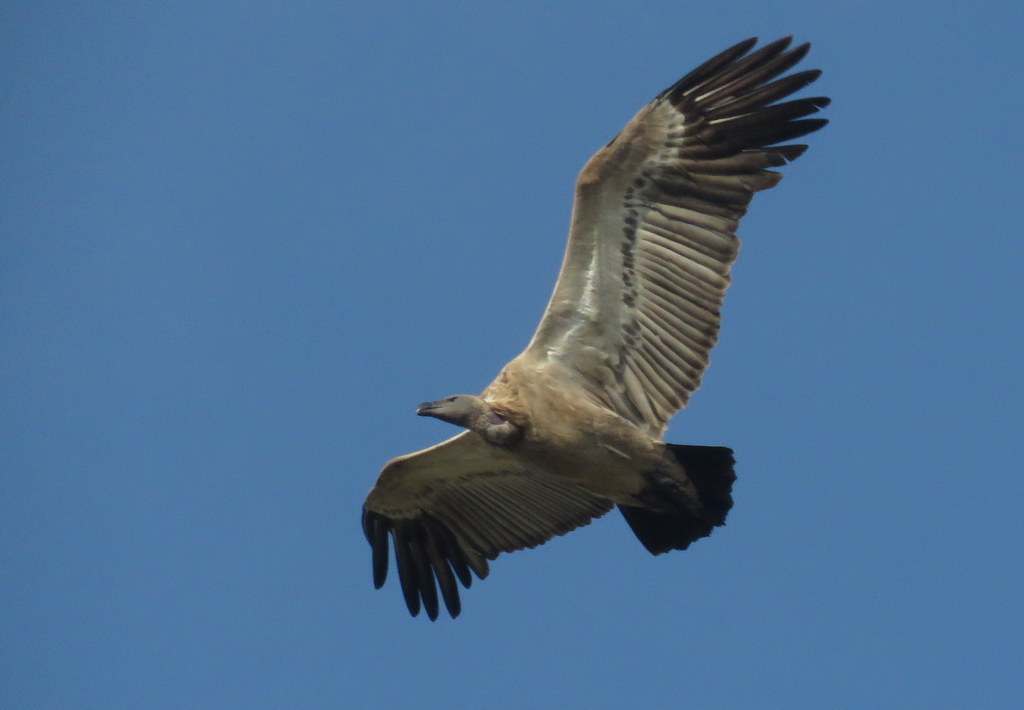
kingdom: Animalia
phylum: Chordata
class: Aves
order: Accipitriformes
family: Accipitridae
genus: Gyps
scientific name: Gyps coprotheres
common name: Cape vulture
